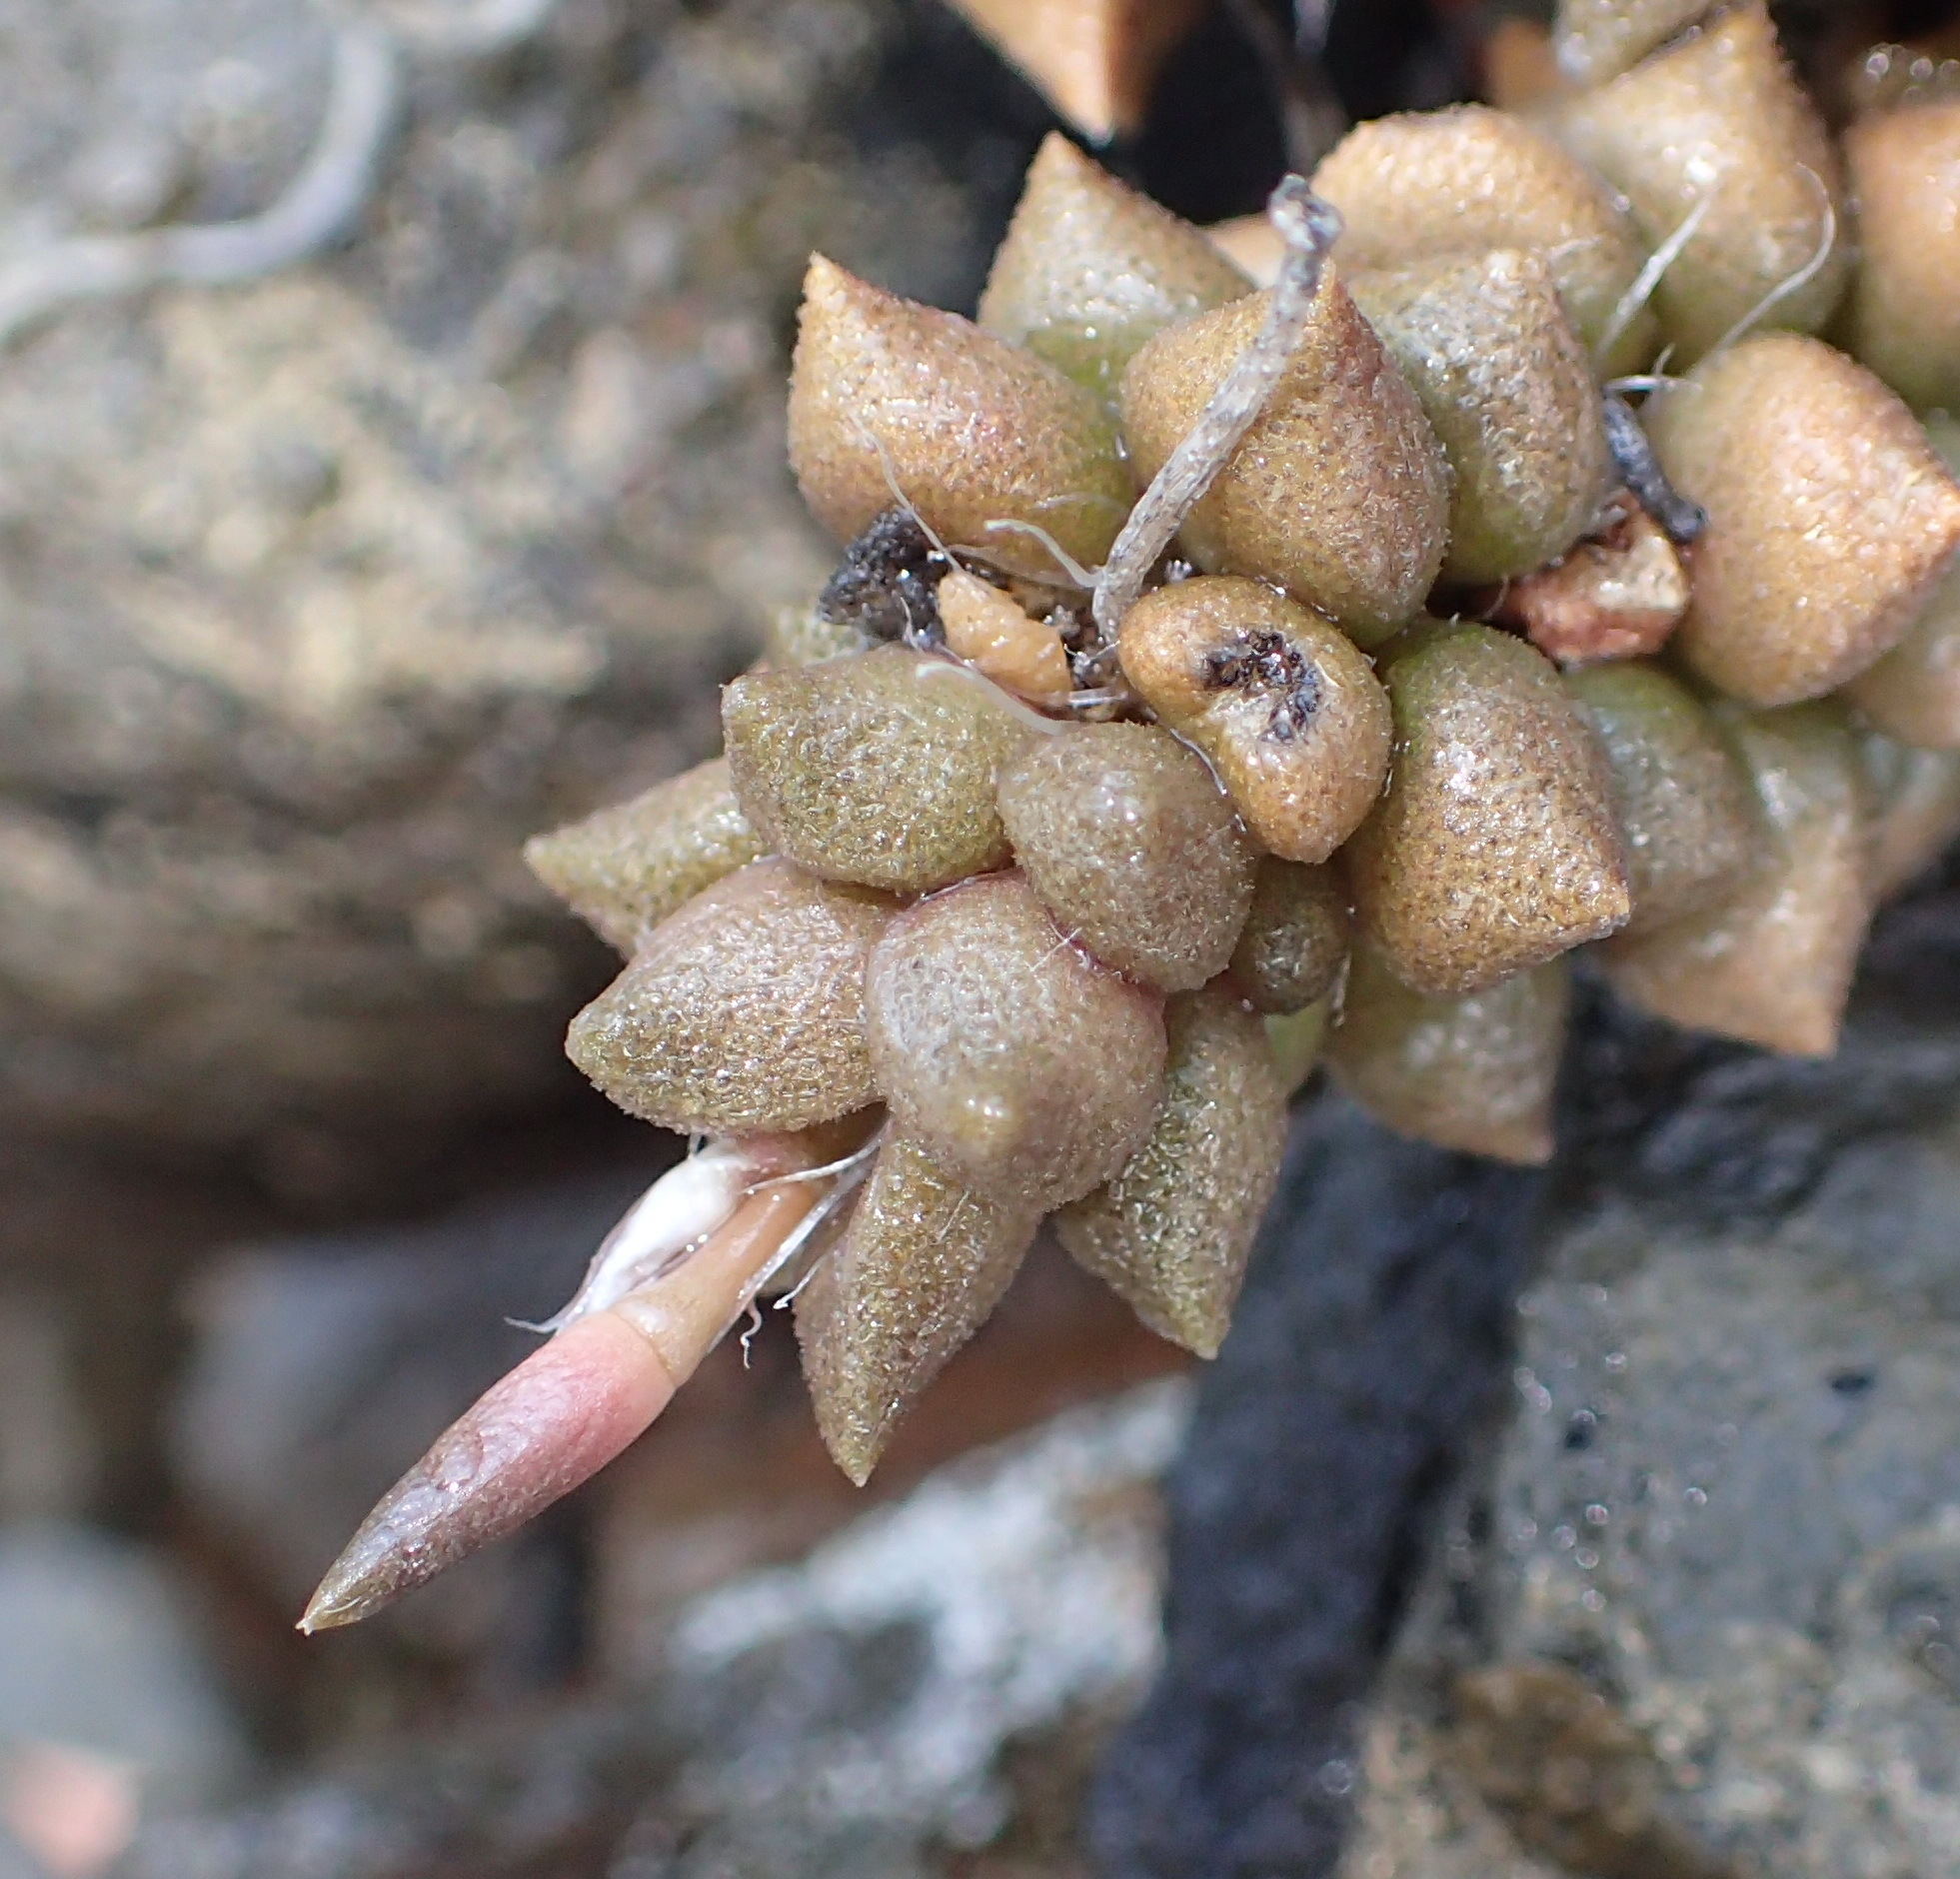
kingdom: Plantae
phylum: Tracheophyta
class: Magnoliopsida
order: Caryophyllales
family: Anacampserotaceae
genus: Anacampseros
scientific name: Anacampseros arachnoides
